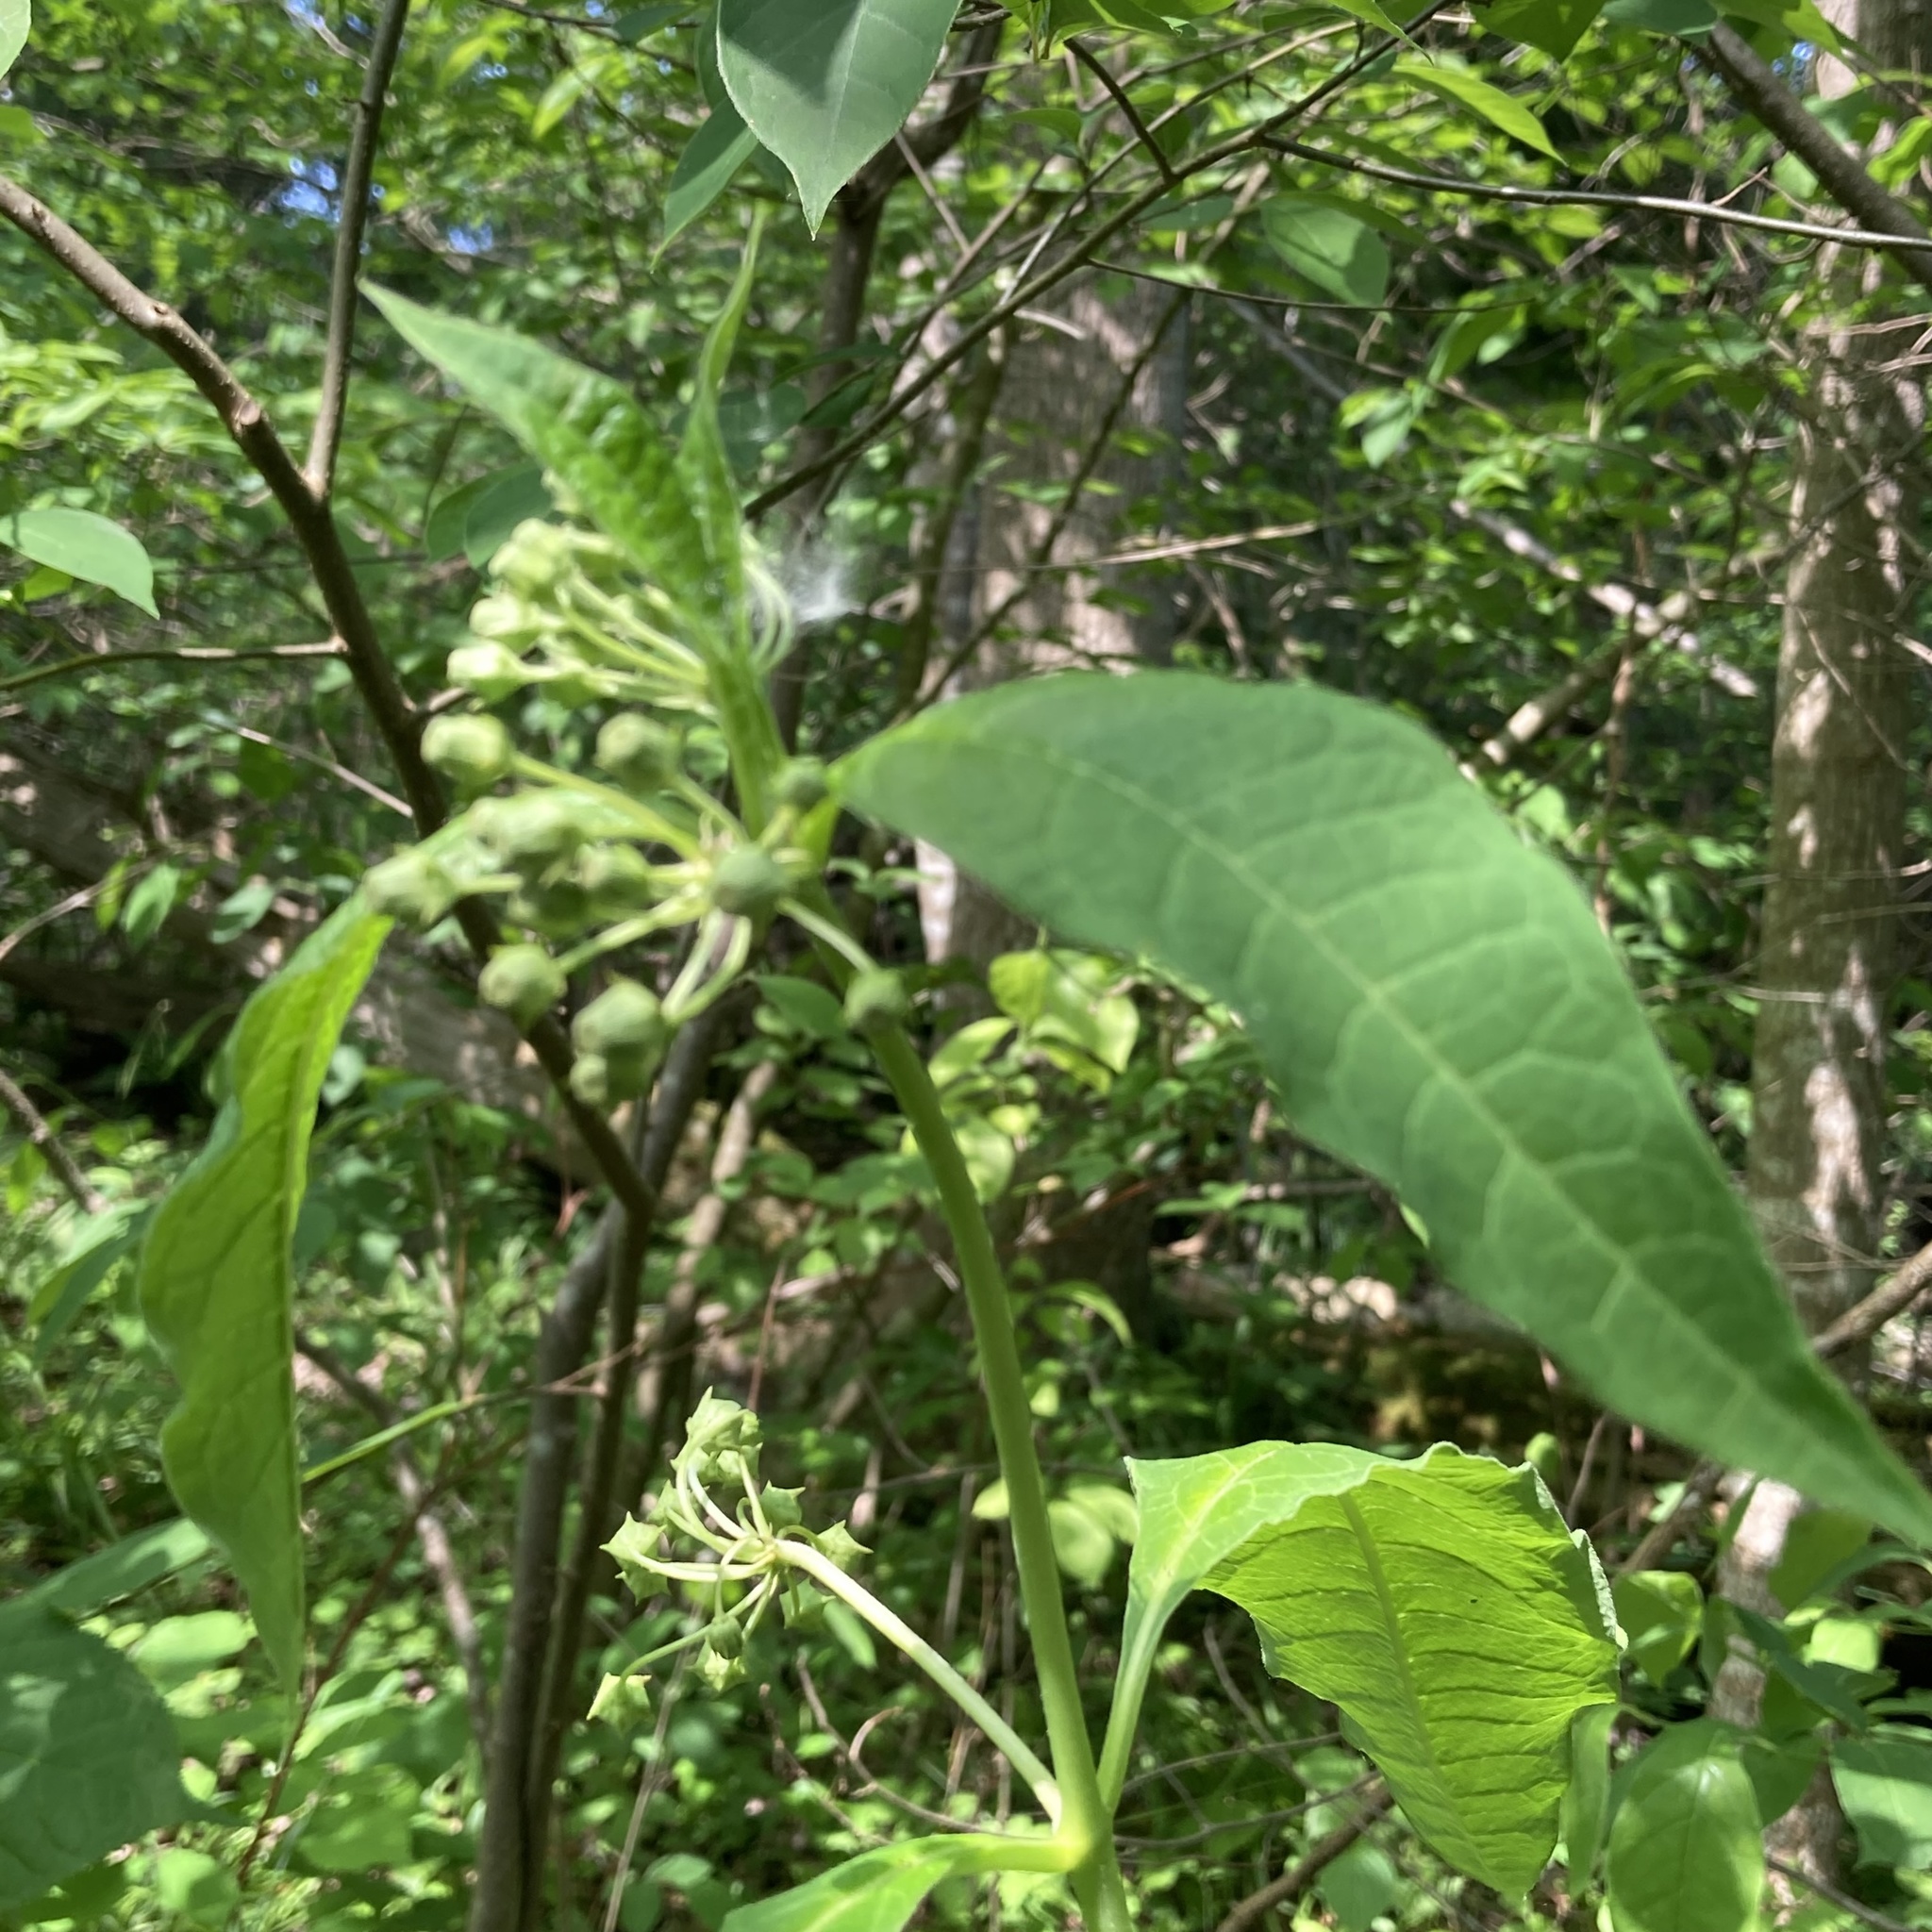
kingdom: Plantae
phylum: Tracheophyta
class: Magnoliopsida
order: Gentianales
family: Apocynaceae
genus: Asclepias
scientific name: Asclepias exaltata
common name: Poke milkweed
